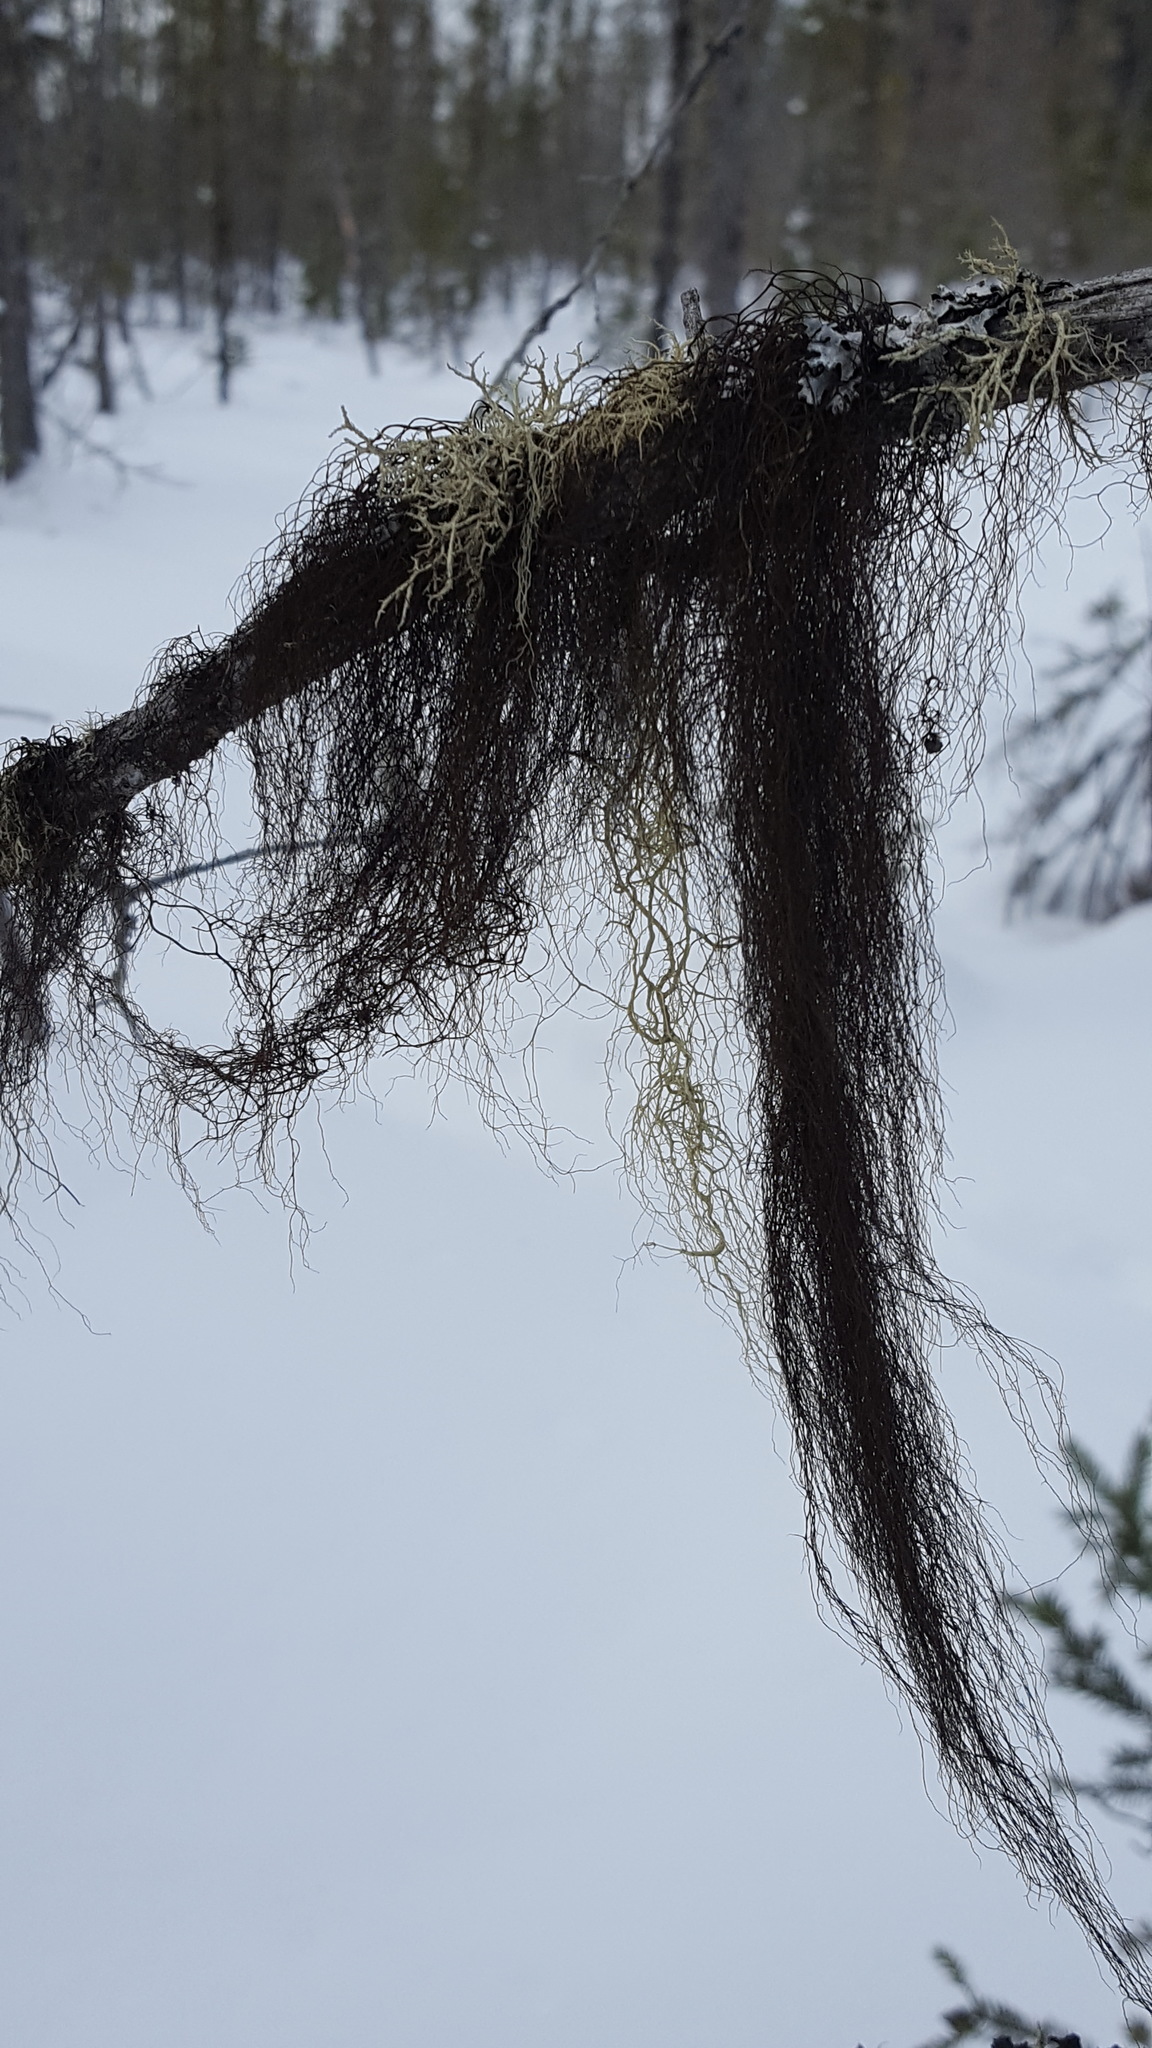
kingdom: Fungi
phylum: Ascomycota
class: Lecanoromycetes
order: Lecanorales
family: Parmeliaceae
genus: Bryoria
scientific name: Bryoria trichodes
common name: Inelegant horsehair lichen
